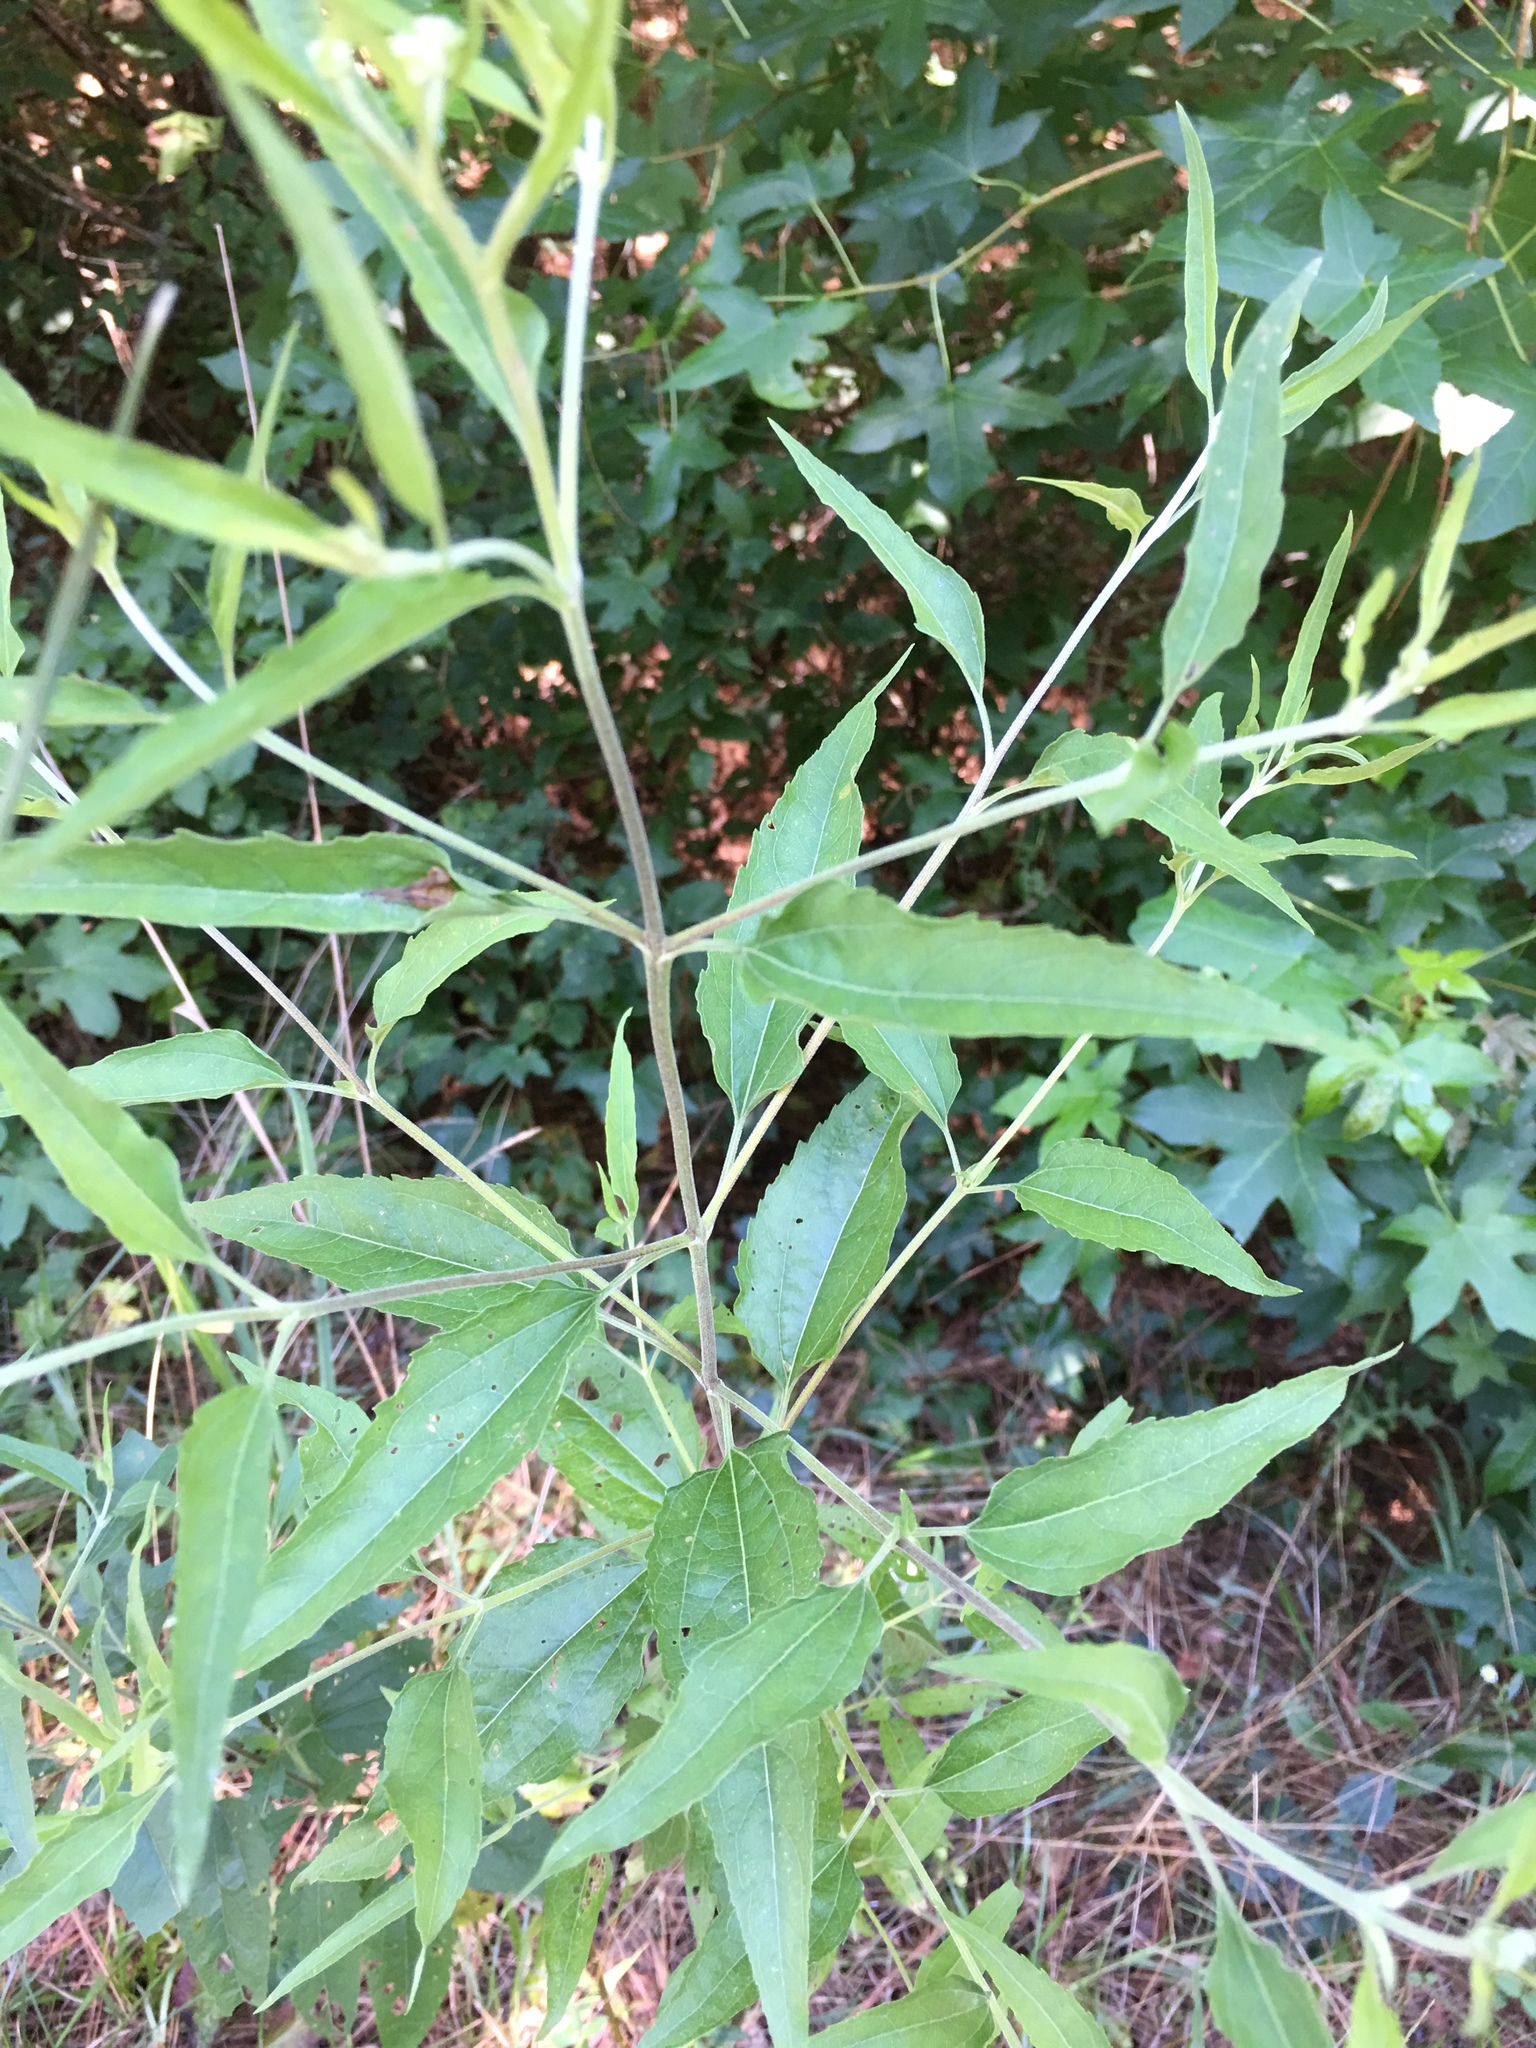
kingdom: Plantae
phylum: Tracheophyta
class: Magnoliopsida
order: Asterales
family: Asteraceae
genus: Eupatorium
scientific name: Eupatorium serotinum
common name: Late boneset
